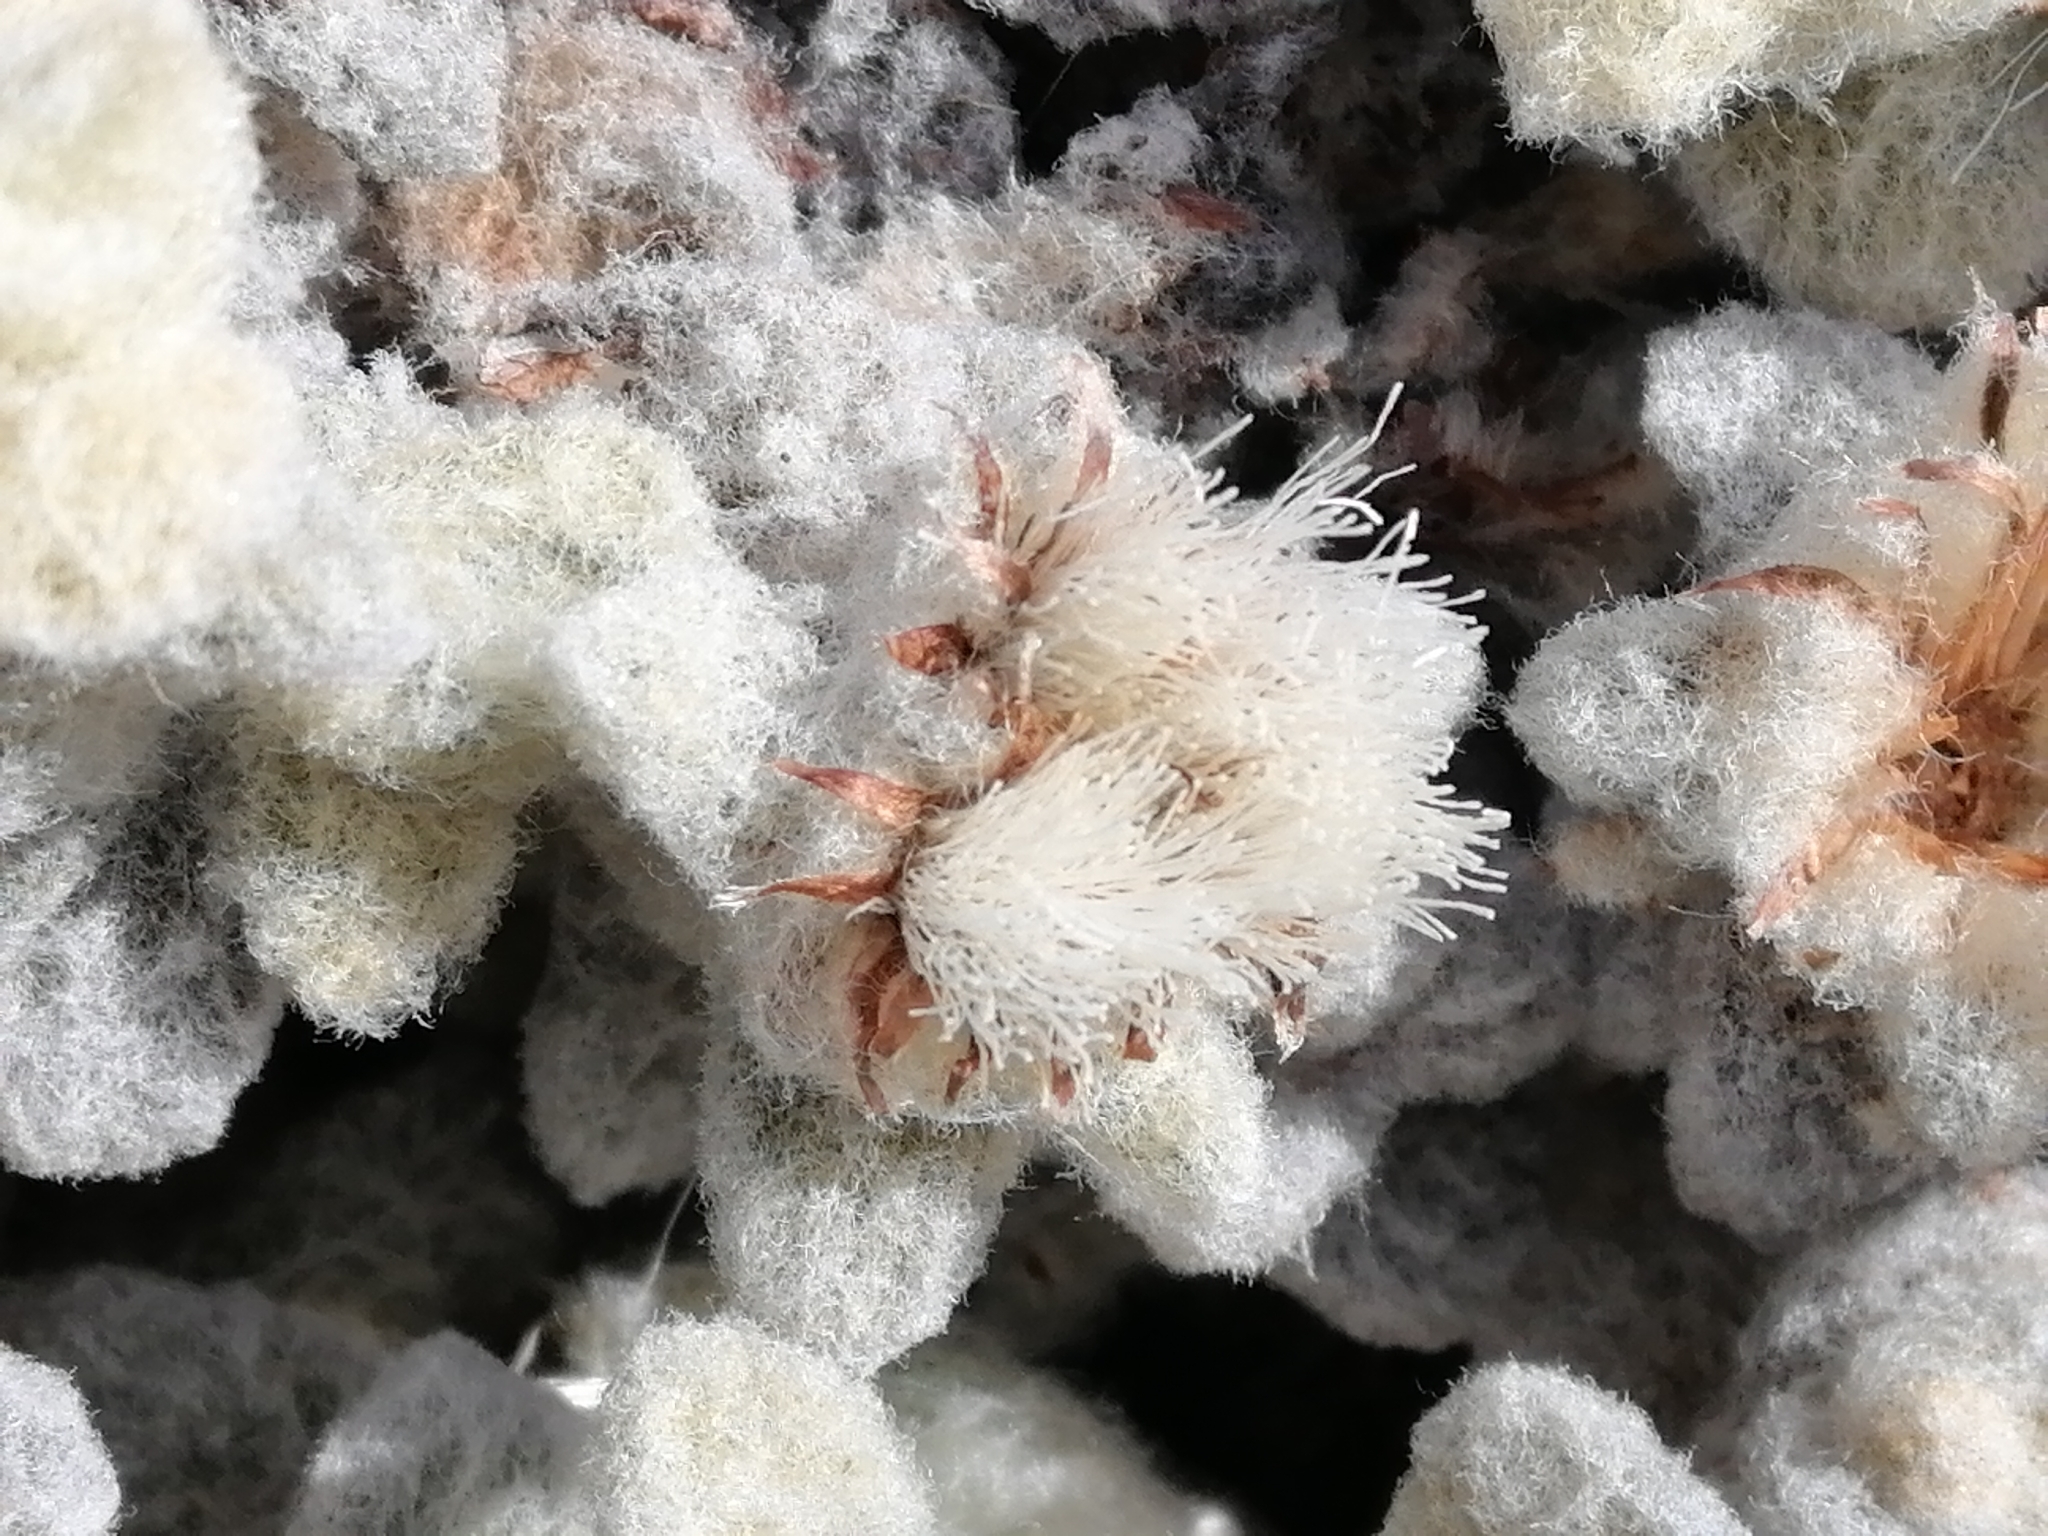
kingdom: Plantae
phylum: Tracheophyta
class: Magnoliopsida
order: Asterales
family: Asteraceae
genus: Haastia
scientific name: Haastia recurva
